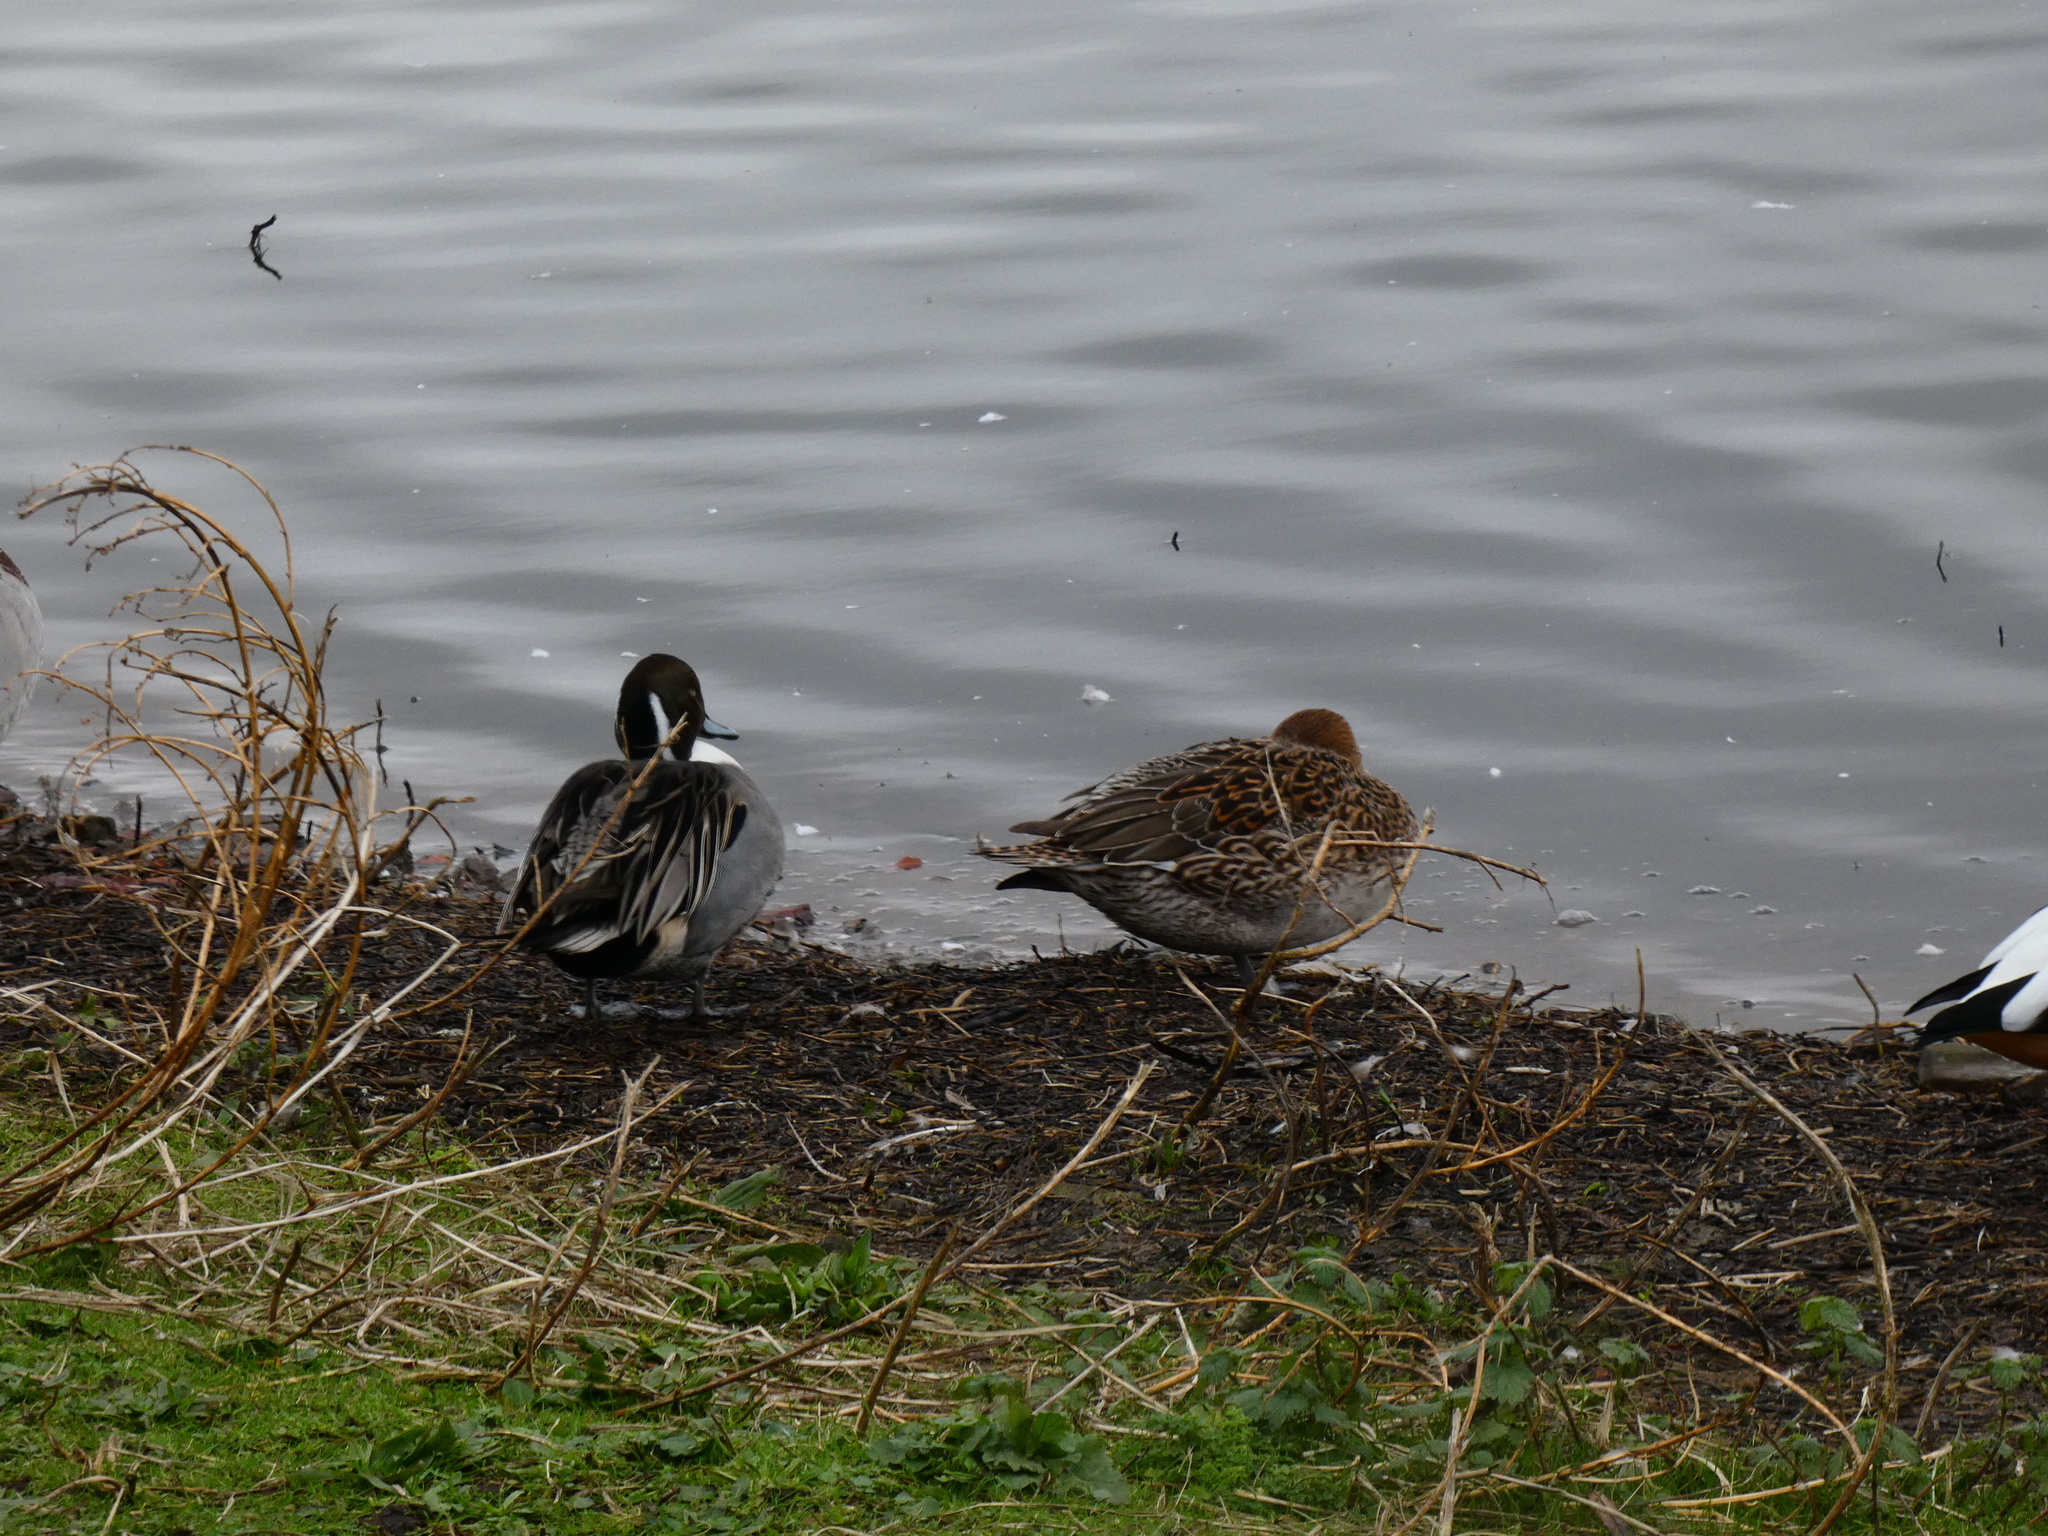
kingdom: Animalia
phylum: Chordata
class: Aves
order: Anseriformes
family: Anatidae
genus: Anas
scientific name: Anas acuta
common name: Northern pintail
